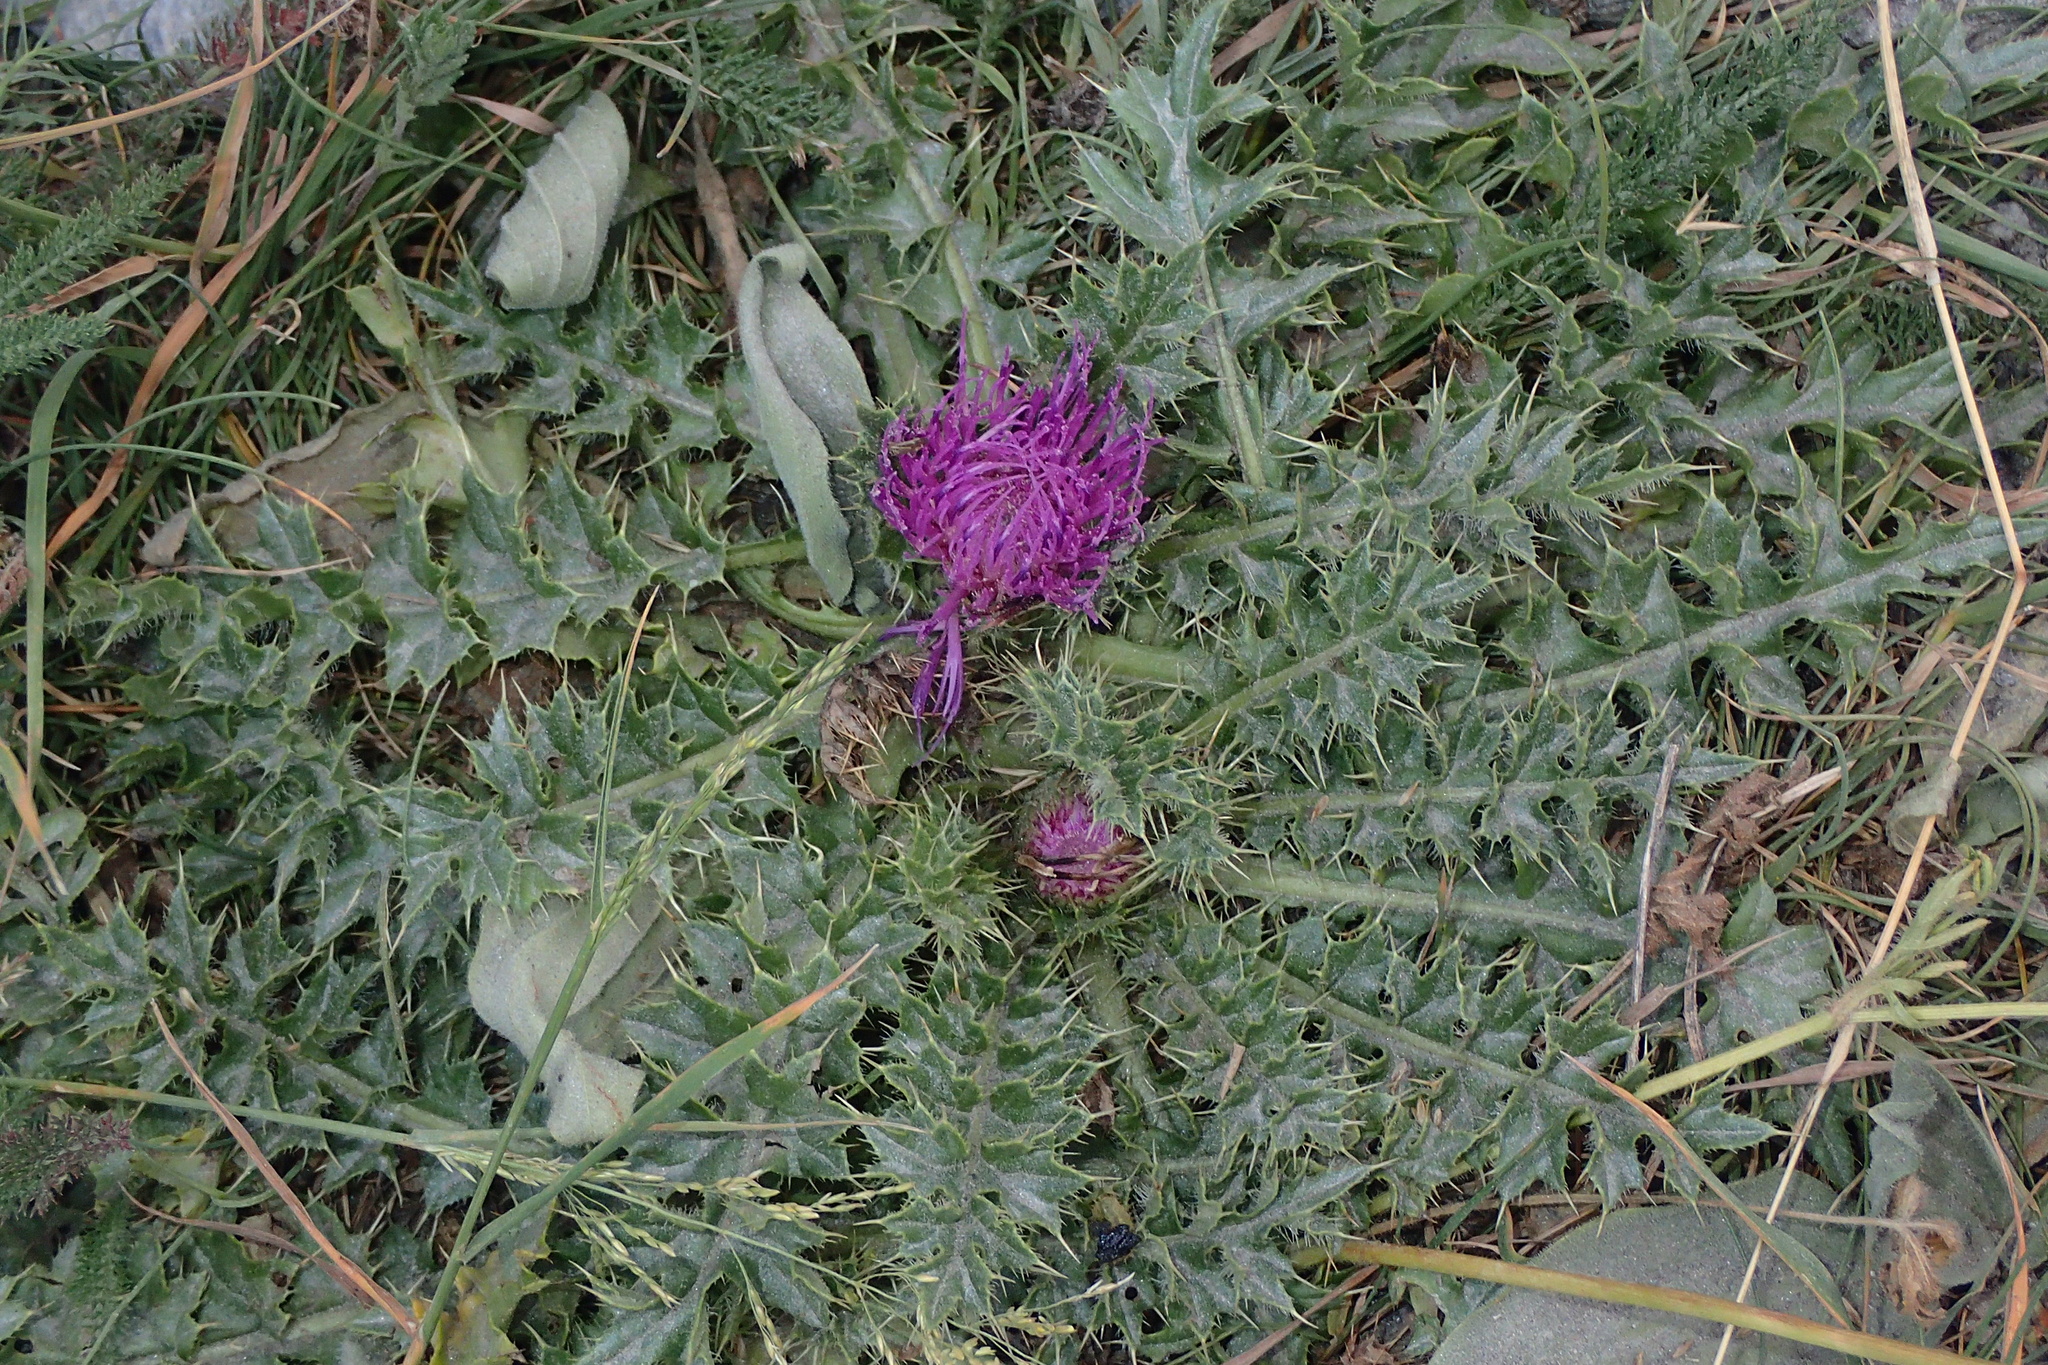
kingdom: Plantae
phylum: Tracheophyta
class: Magnoliopsida
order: Asterales
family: Asteraceae
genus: Cirsium
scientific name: Cirsium acaulon
